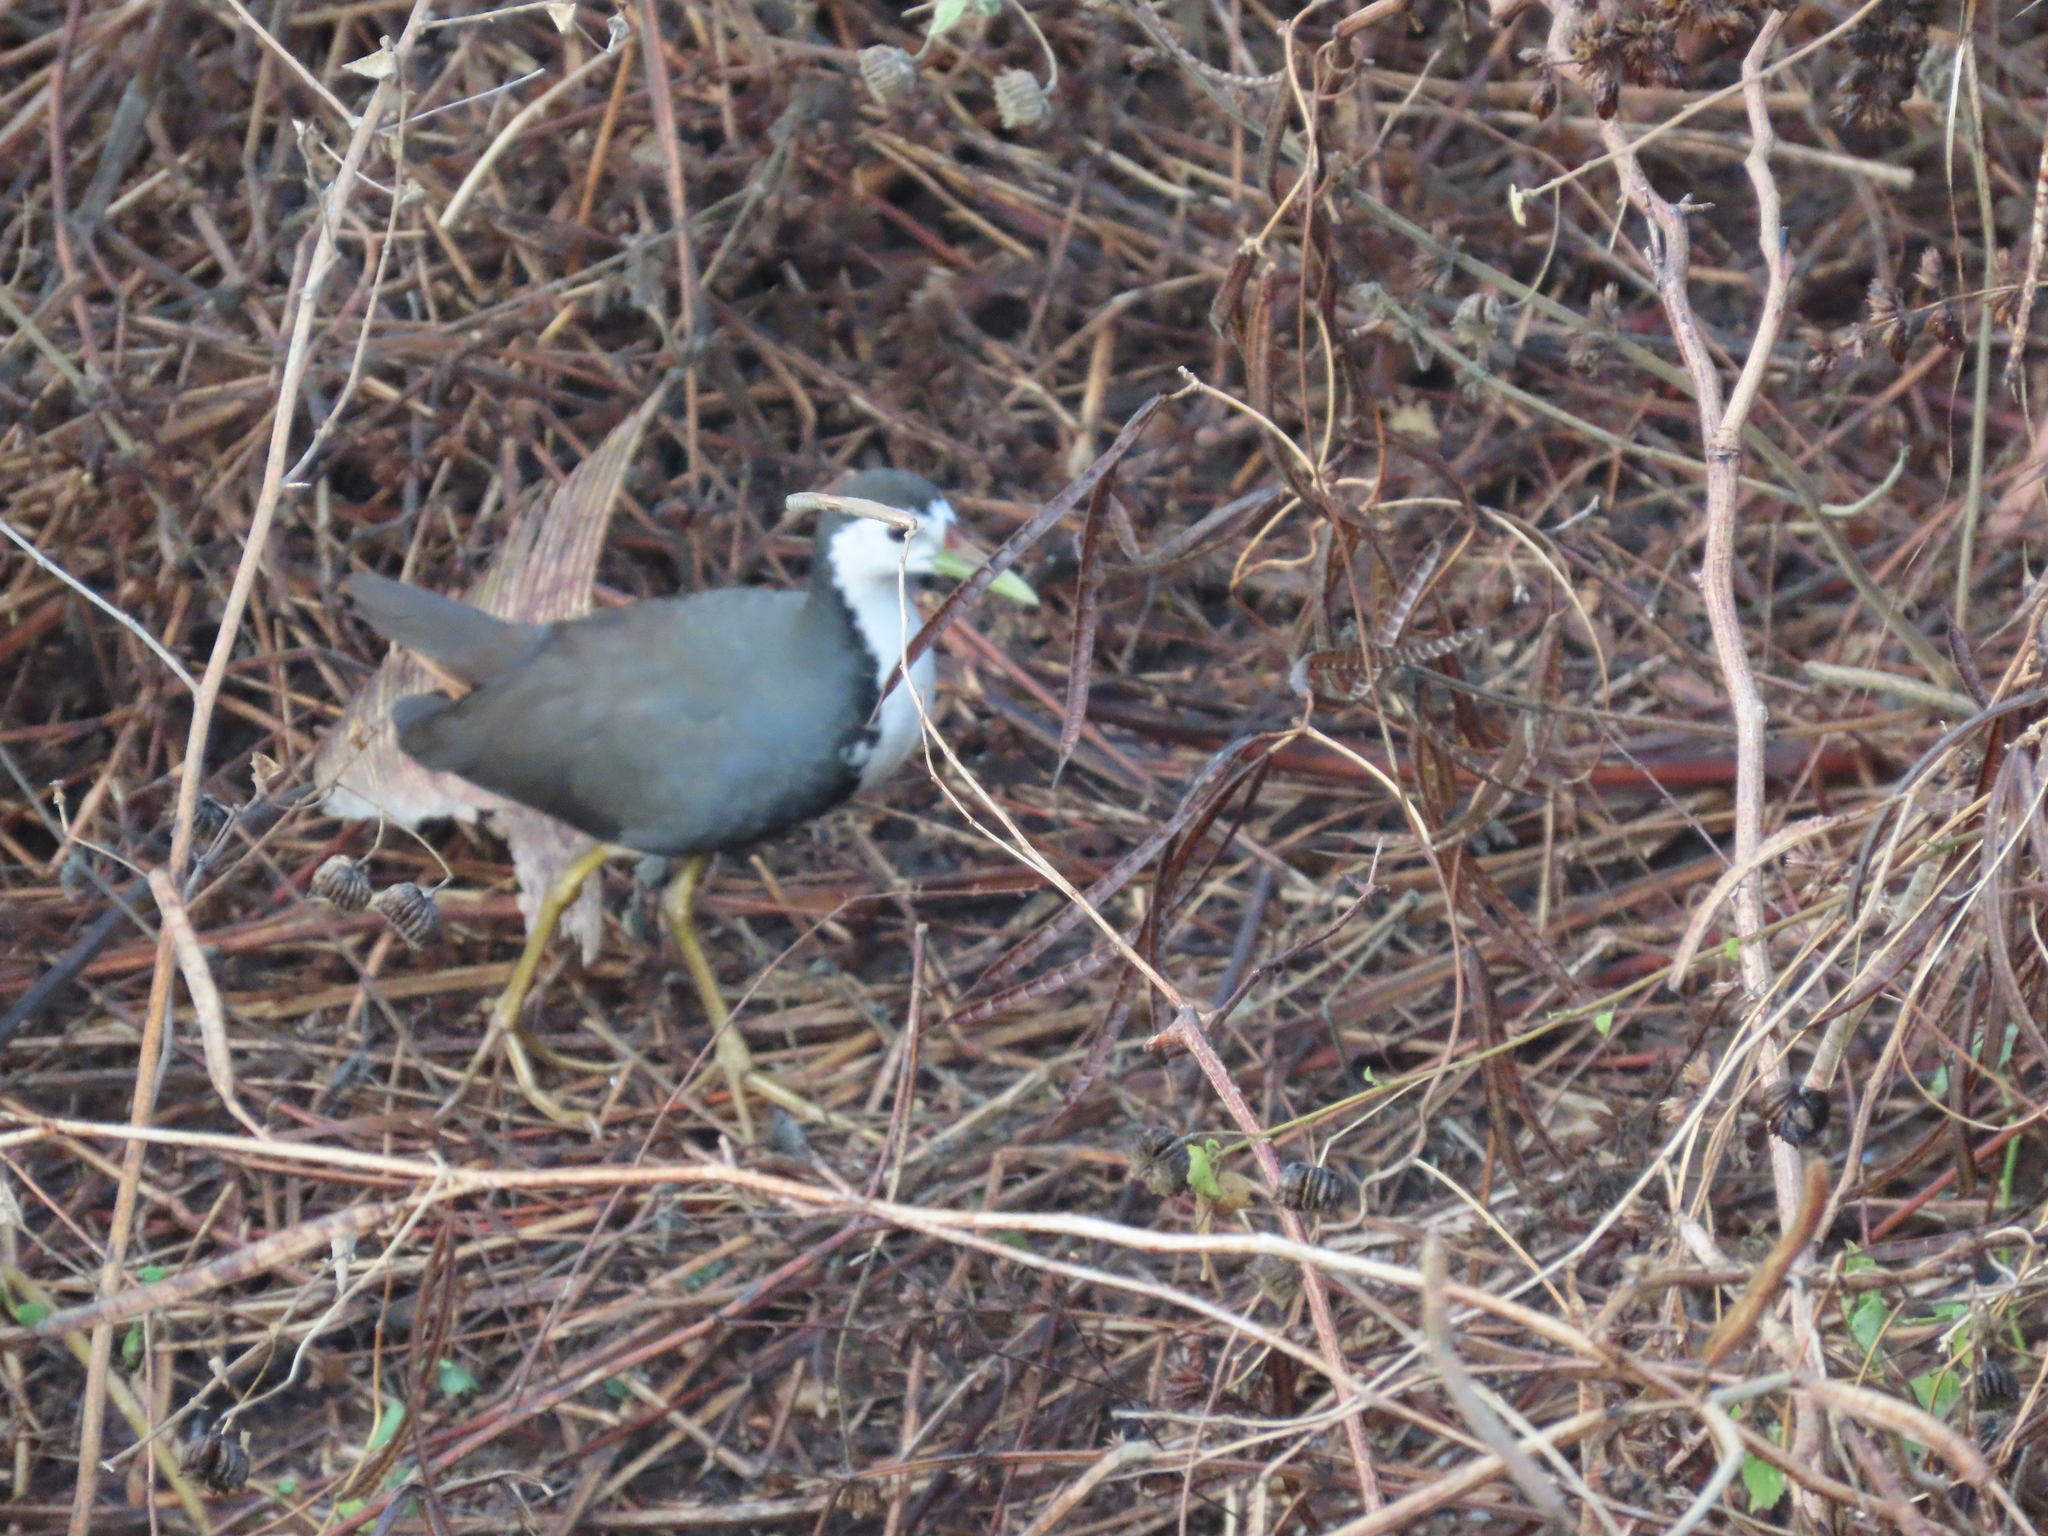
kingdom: Animalia
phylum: Chordata
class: Aves
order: Gruiformes
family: Rallidae
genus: Amaurornis
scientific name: Amaurornis phoenicurus
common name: White-breasted waterhen
